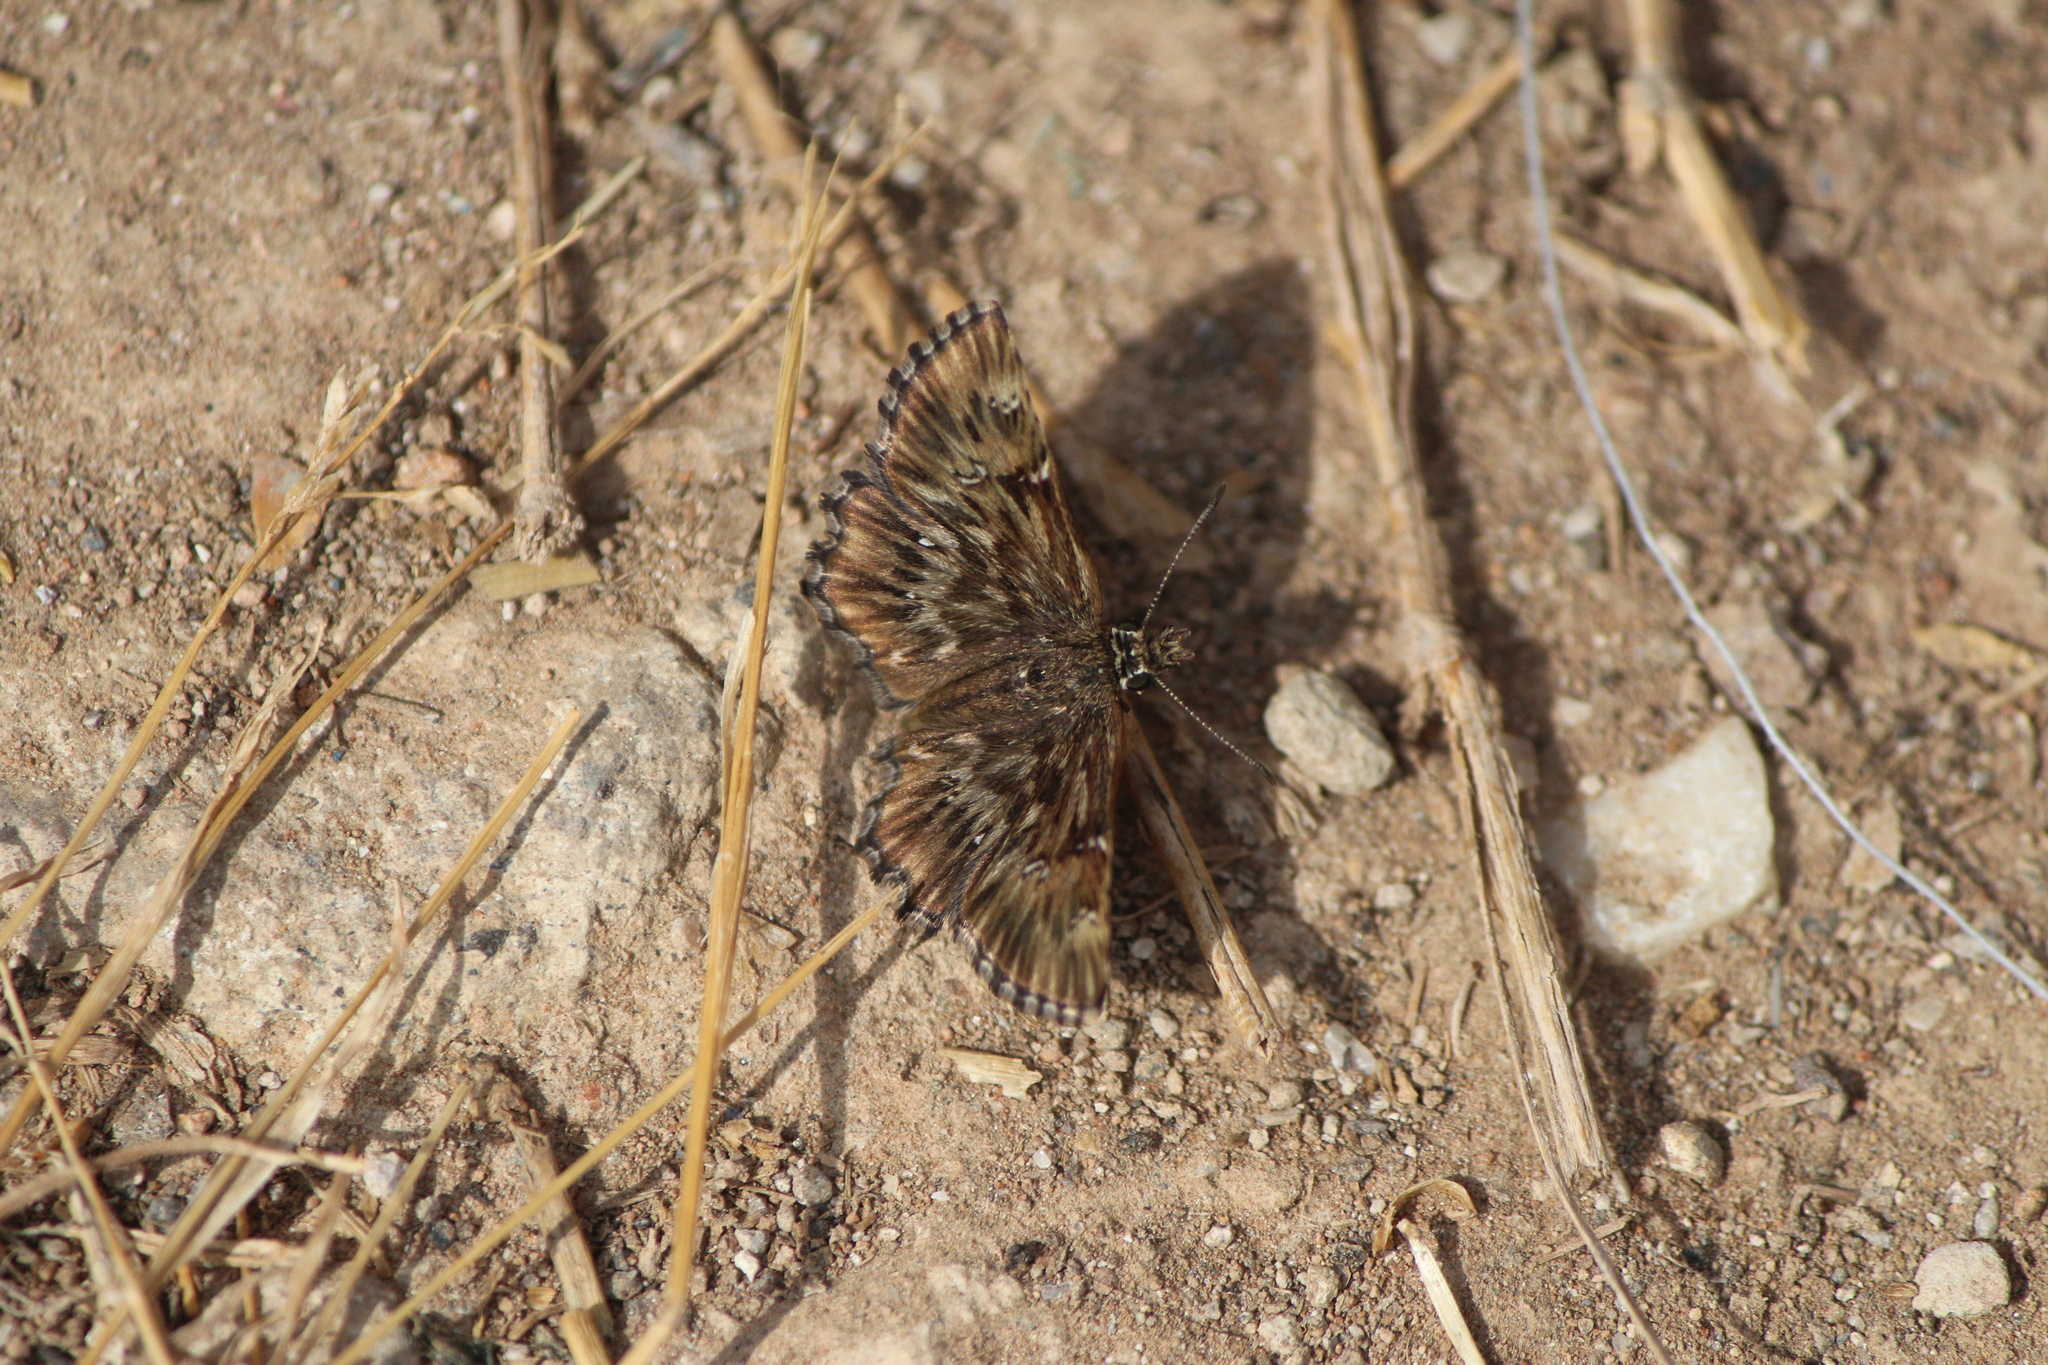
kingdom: Animalia
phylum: Arthropoda
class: Insecta
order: Lepidoptera
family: Hesperiidae
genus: Celotes
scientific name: Celotes spurcus
